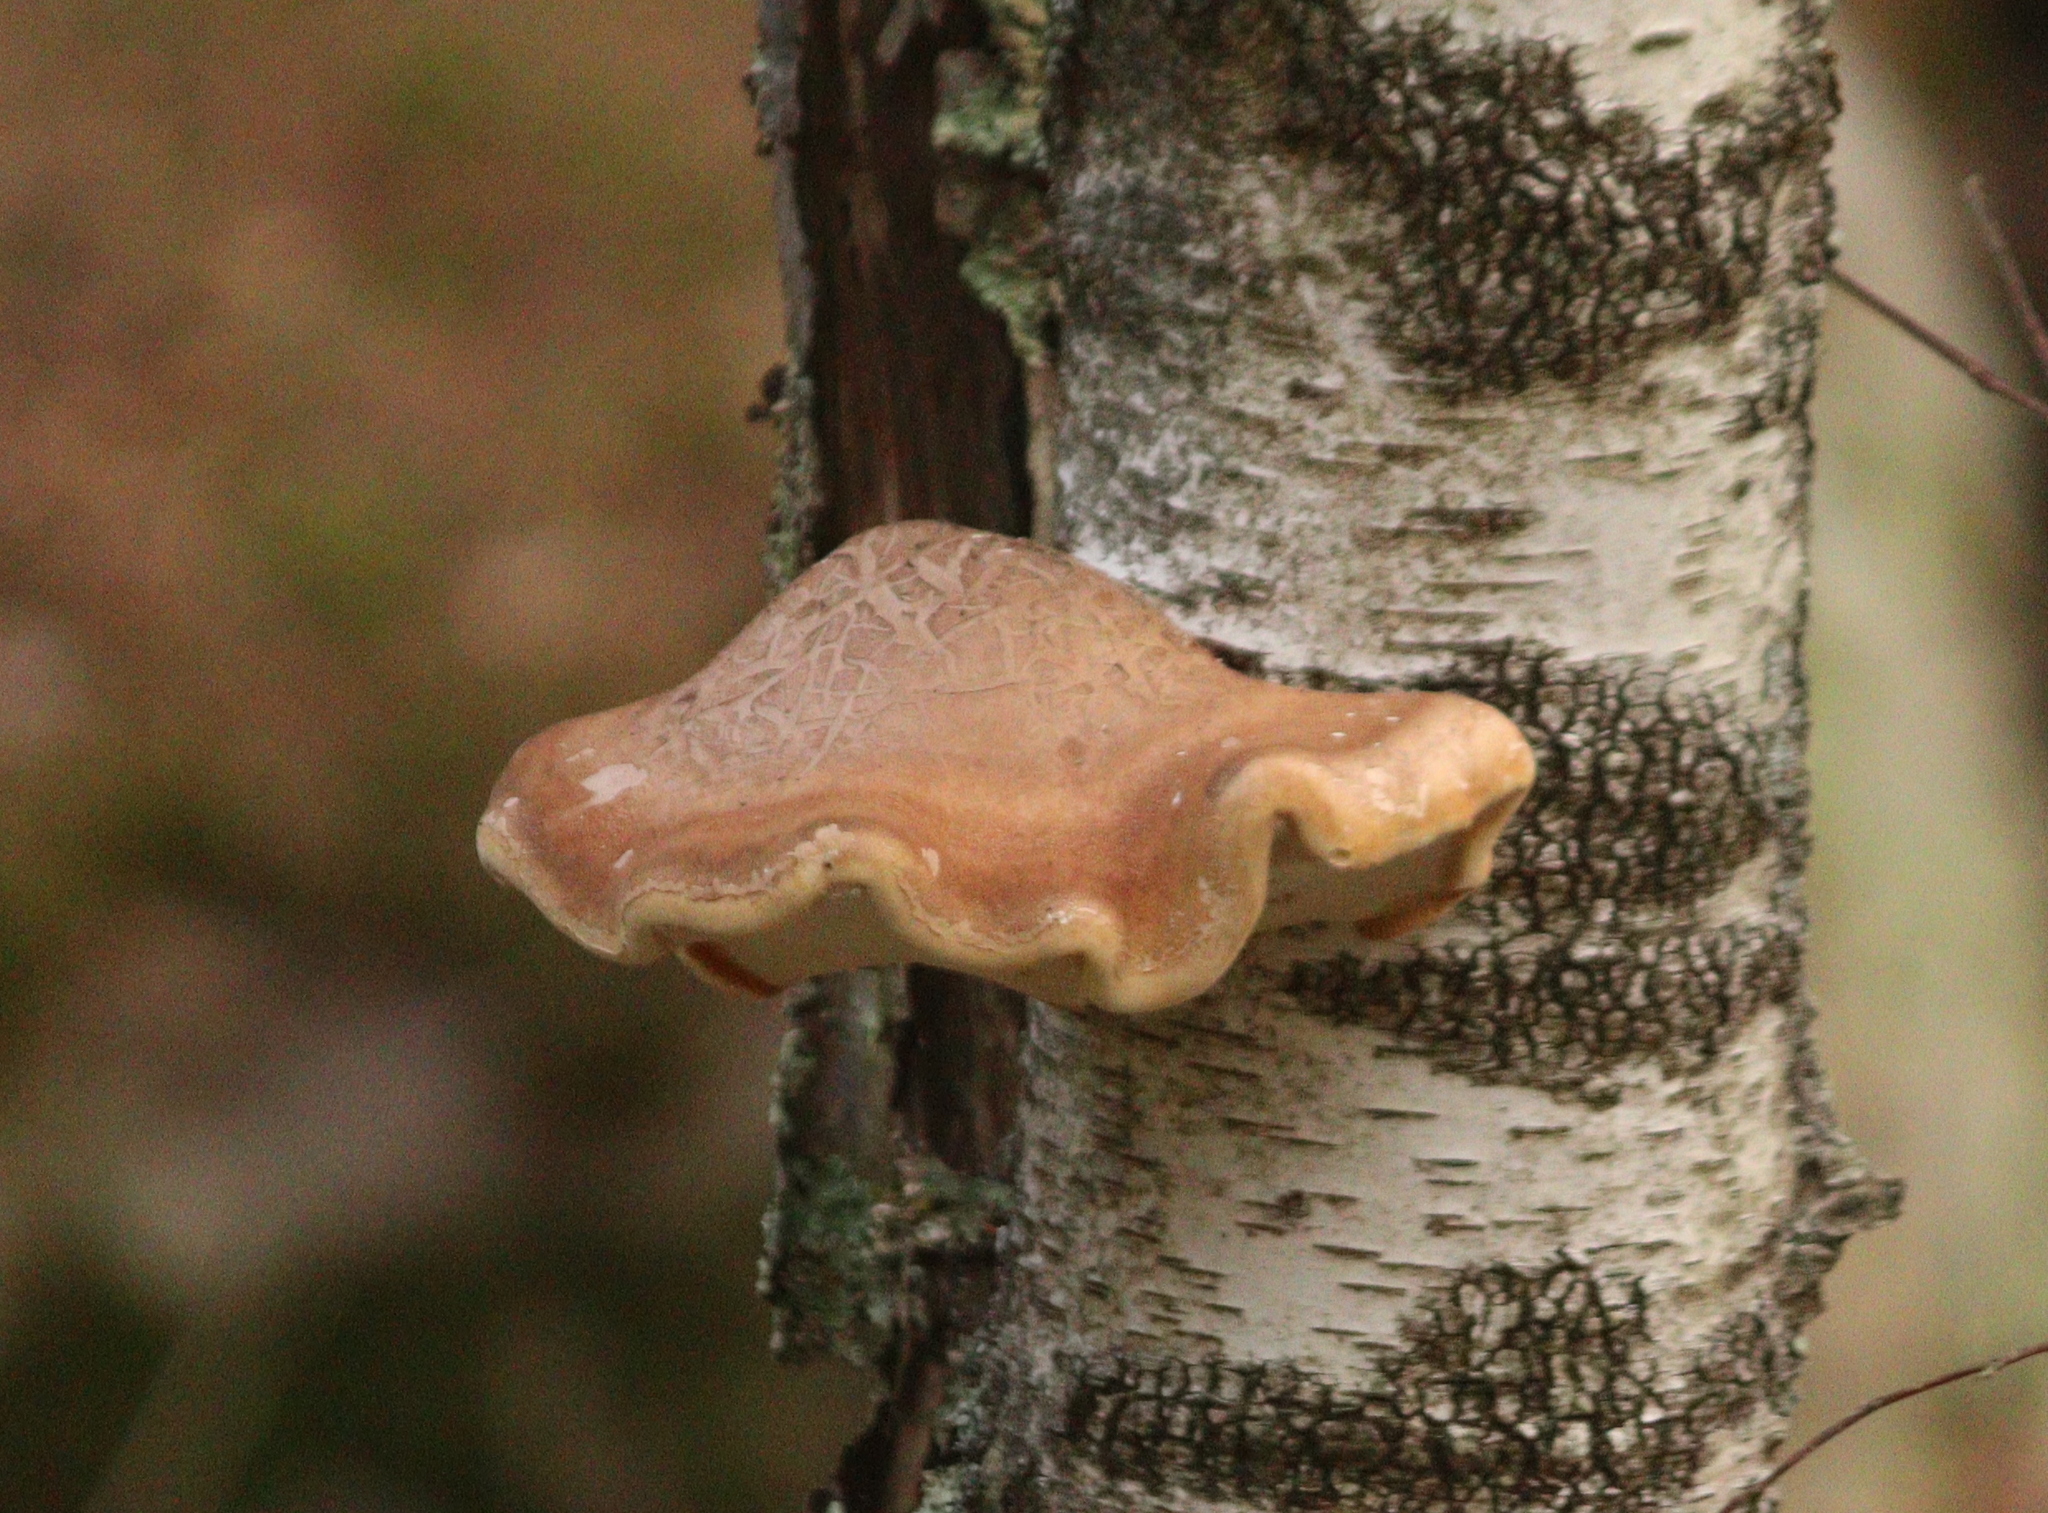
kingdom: Fungi
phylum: Basidiomycota
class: Agaricomycetes
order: Polyporales
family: Fomitopsidaceae
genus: Fomitopsis
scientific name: Fomitopsis betulina
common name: Birch polypore
